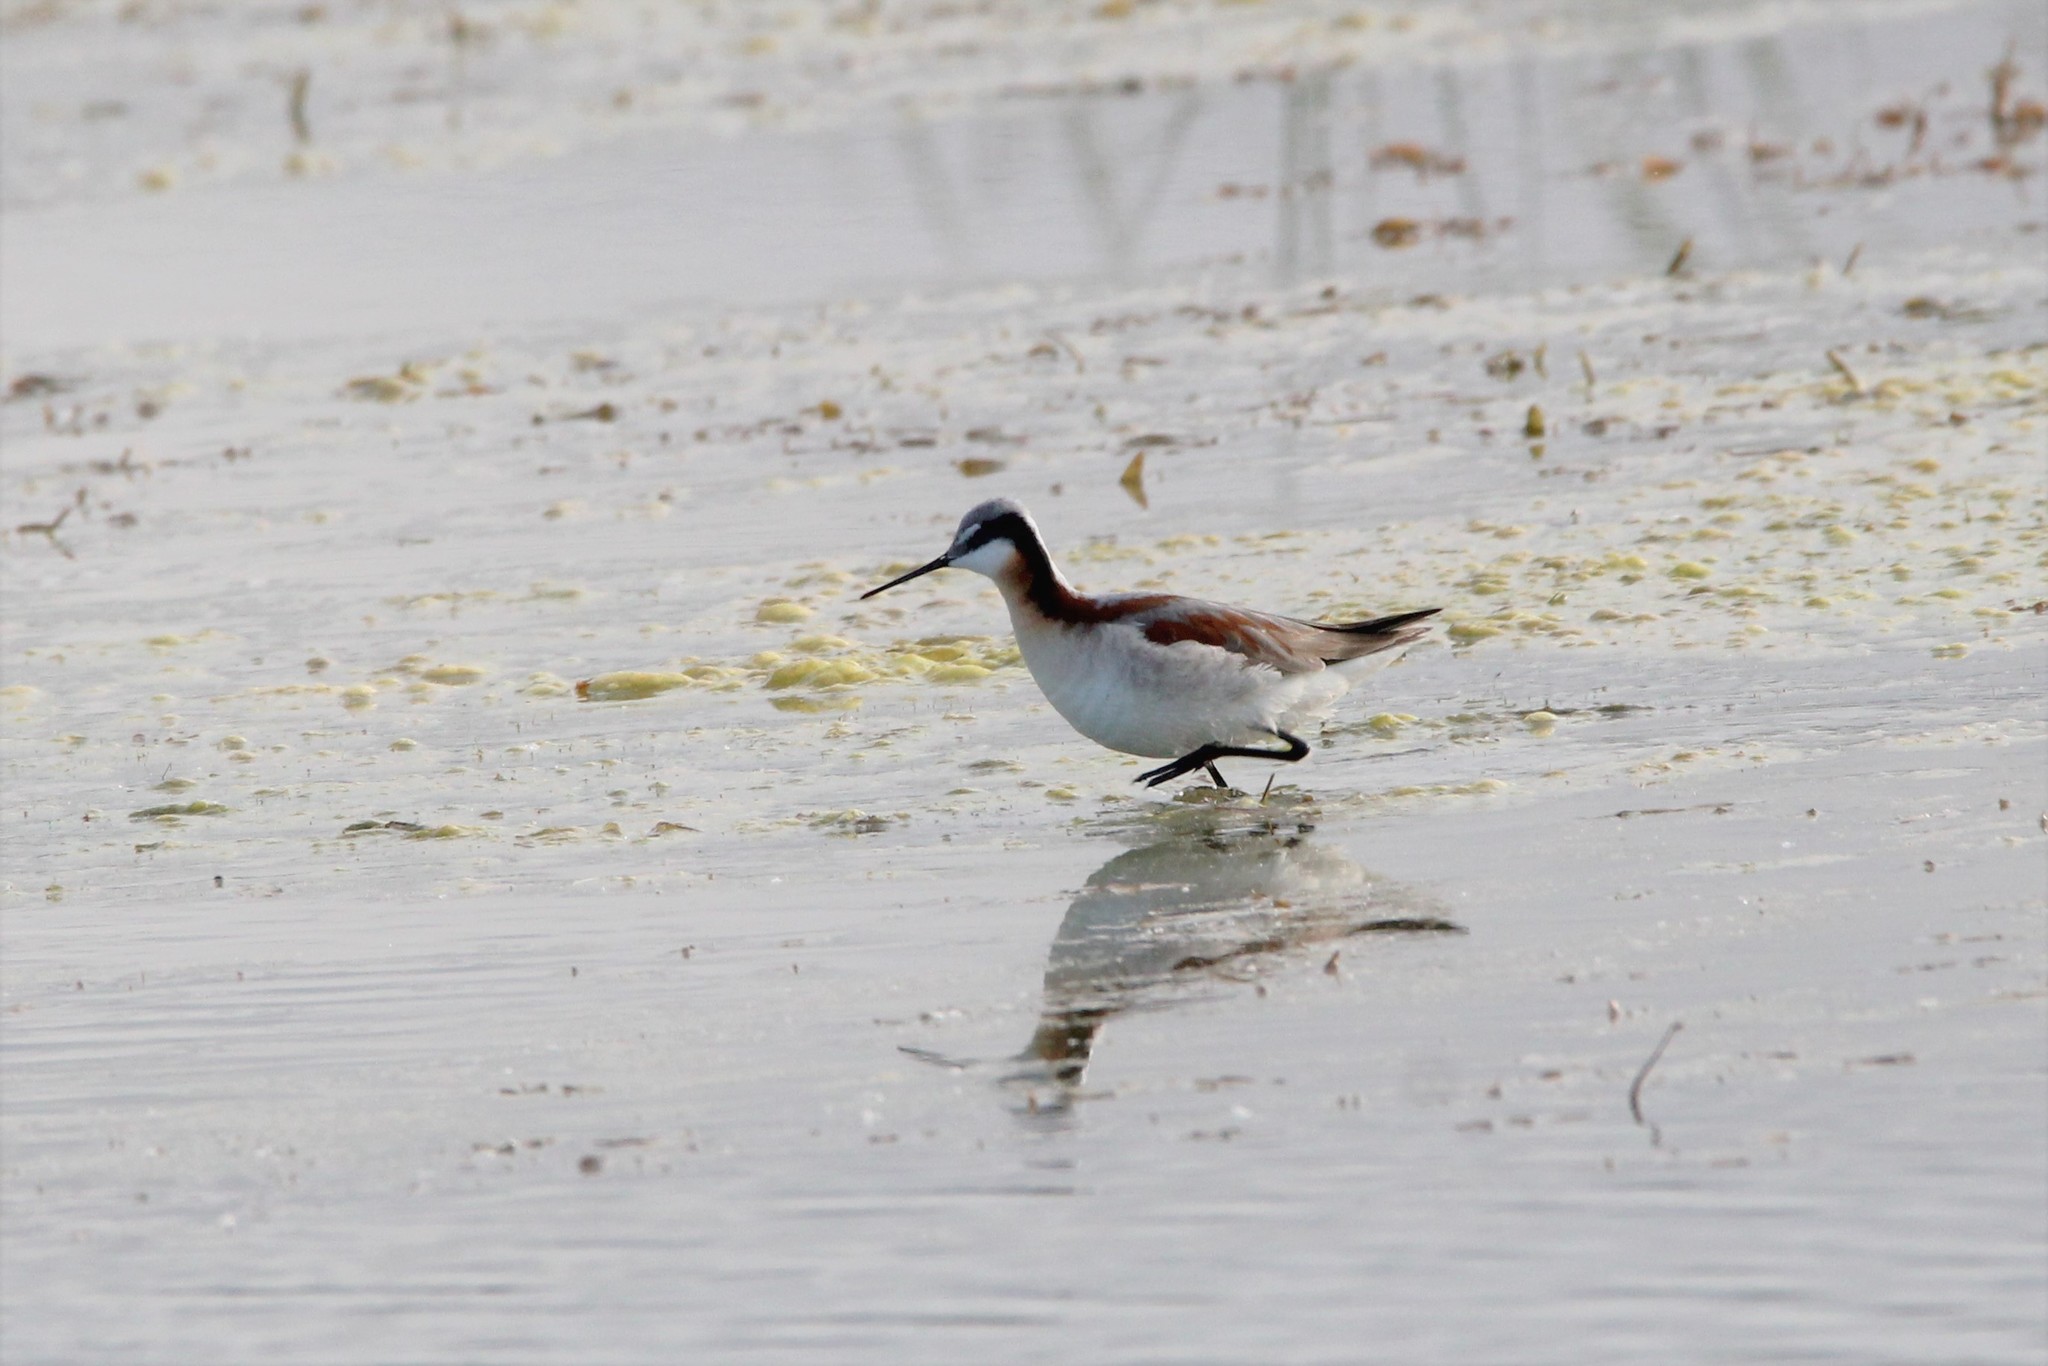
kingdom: Animalia
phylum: Chordata
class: Aves
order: Charadriiformes
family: Scolopacidae
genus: Phalaropus
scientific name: Phalaropus tricolor
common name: Wilson's phalarope
